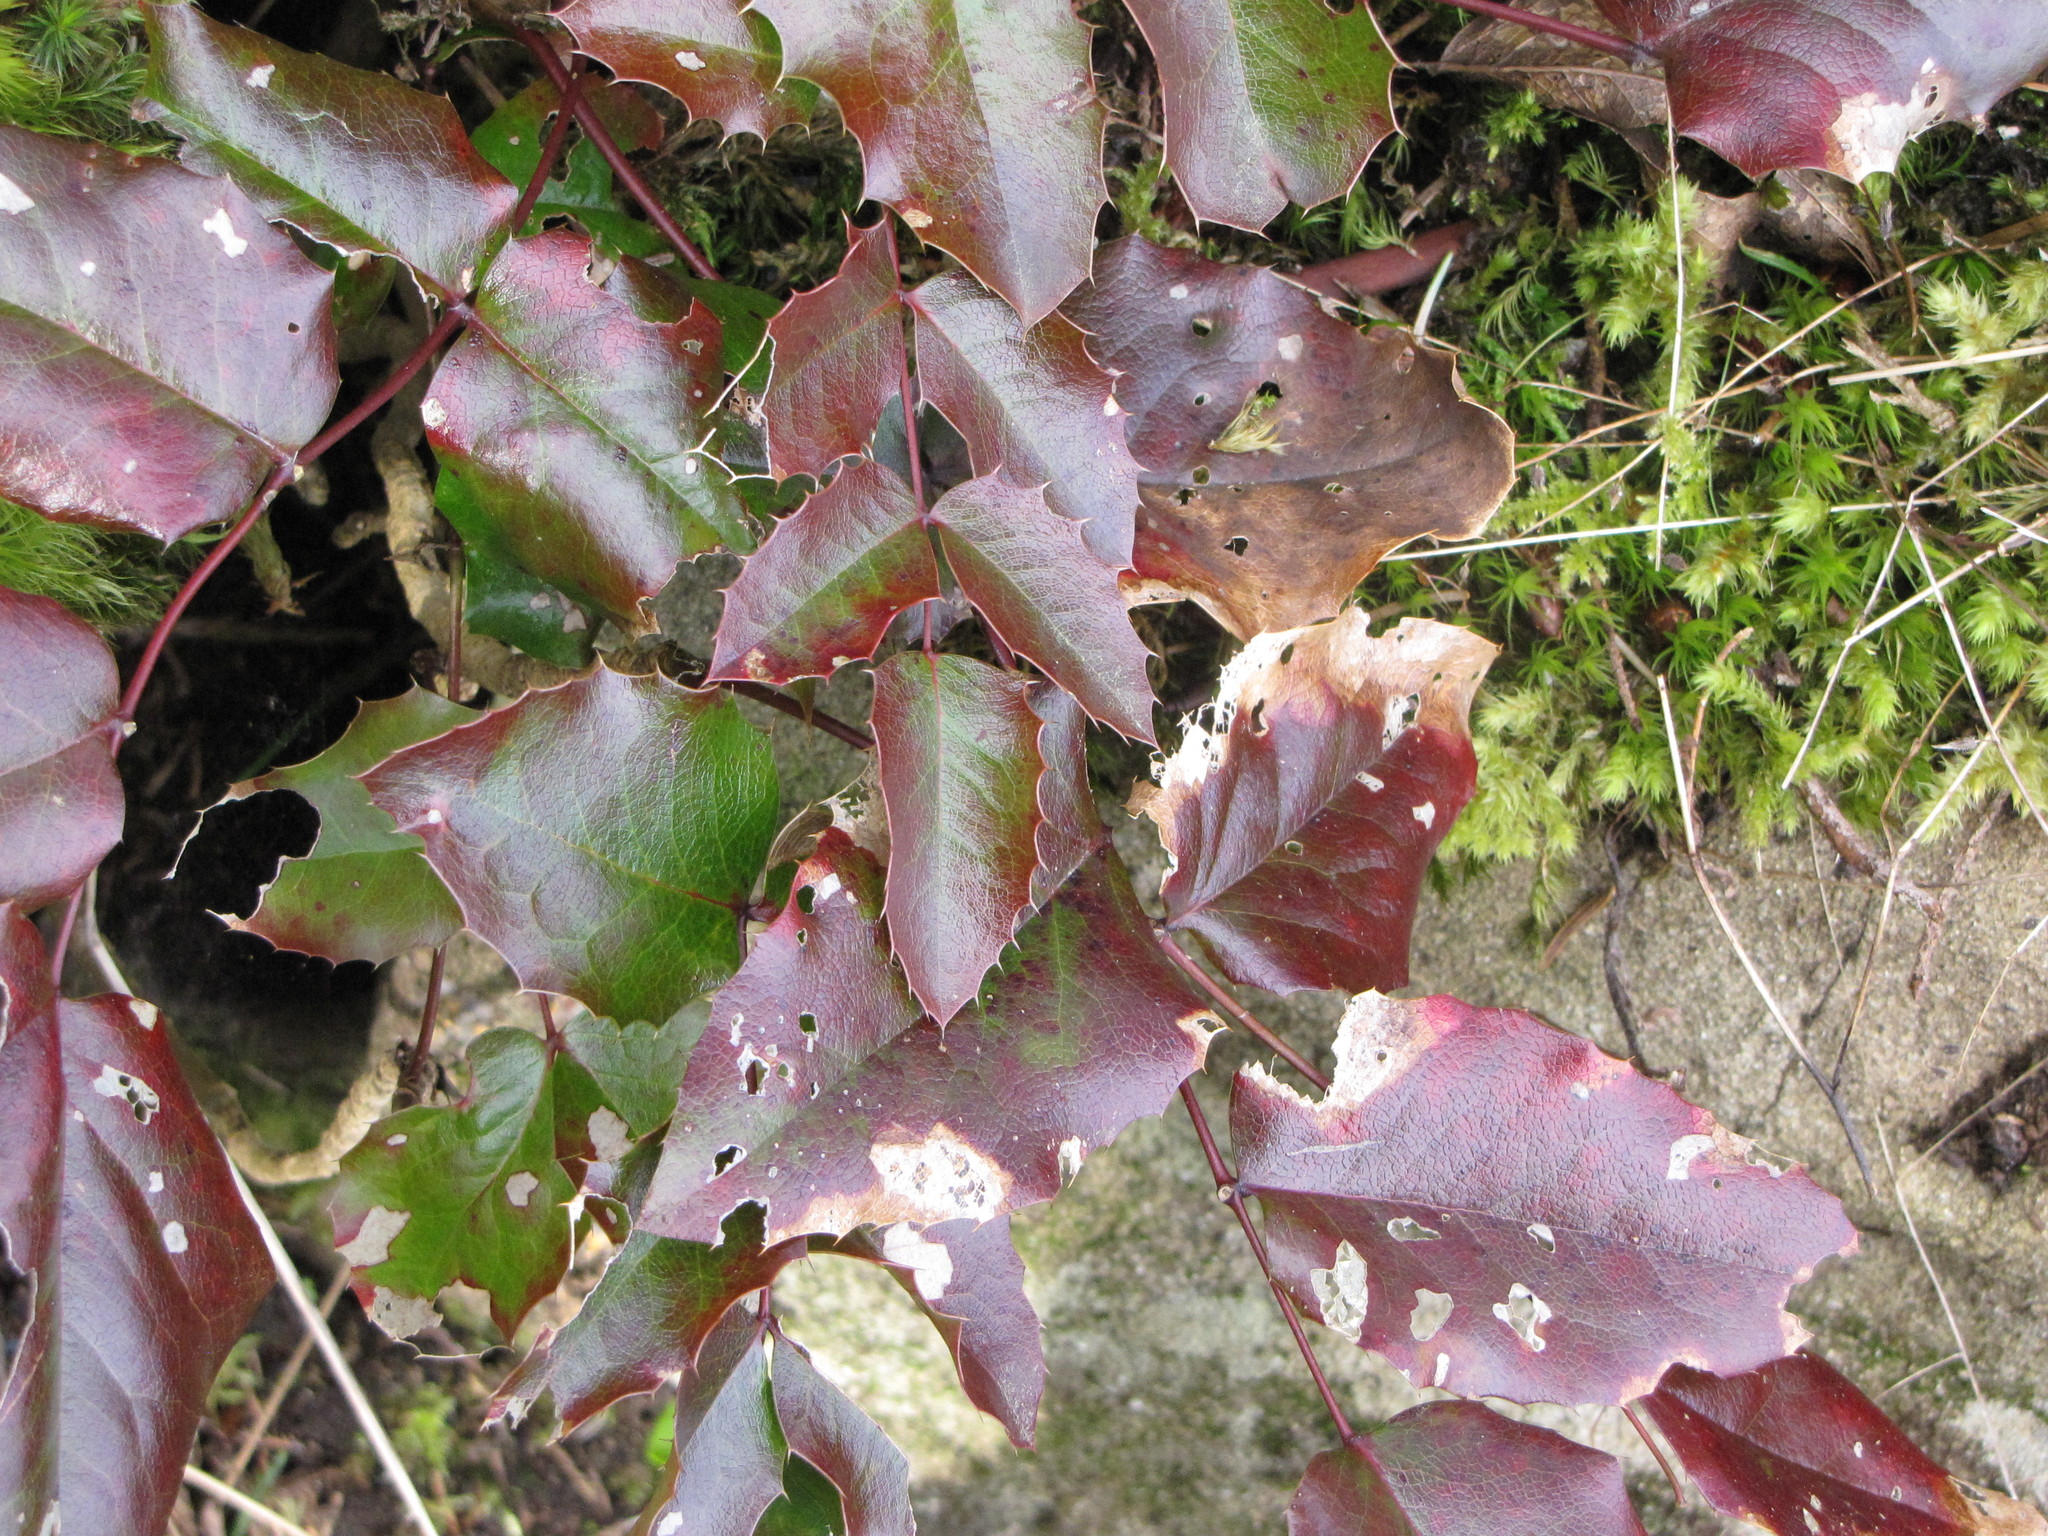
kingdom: Plantae
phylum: Tracheophyta
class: Magnoliopsida
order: Ranunculales
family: Berberidaceae
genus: Mahonia
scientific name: Mahonia aquifolium
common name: Oregon-grape
